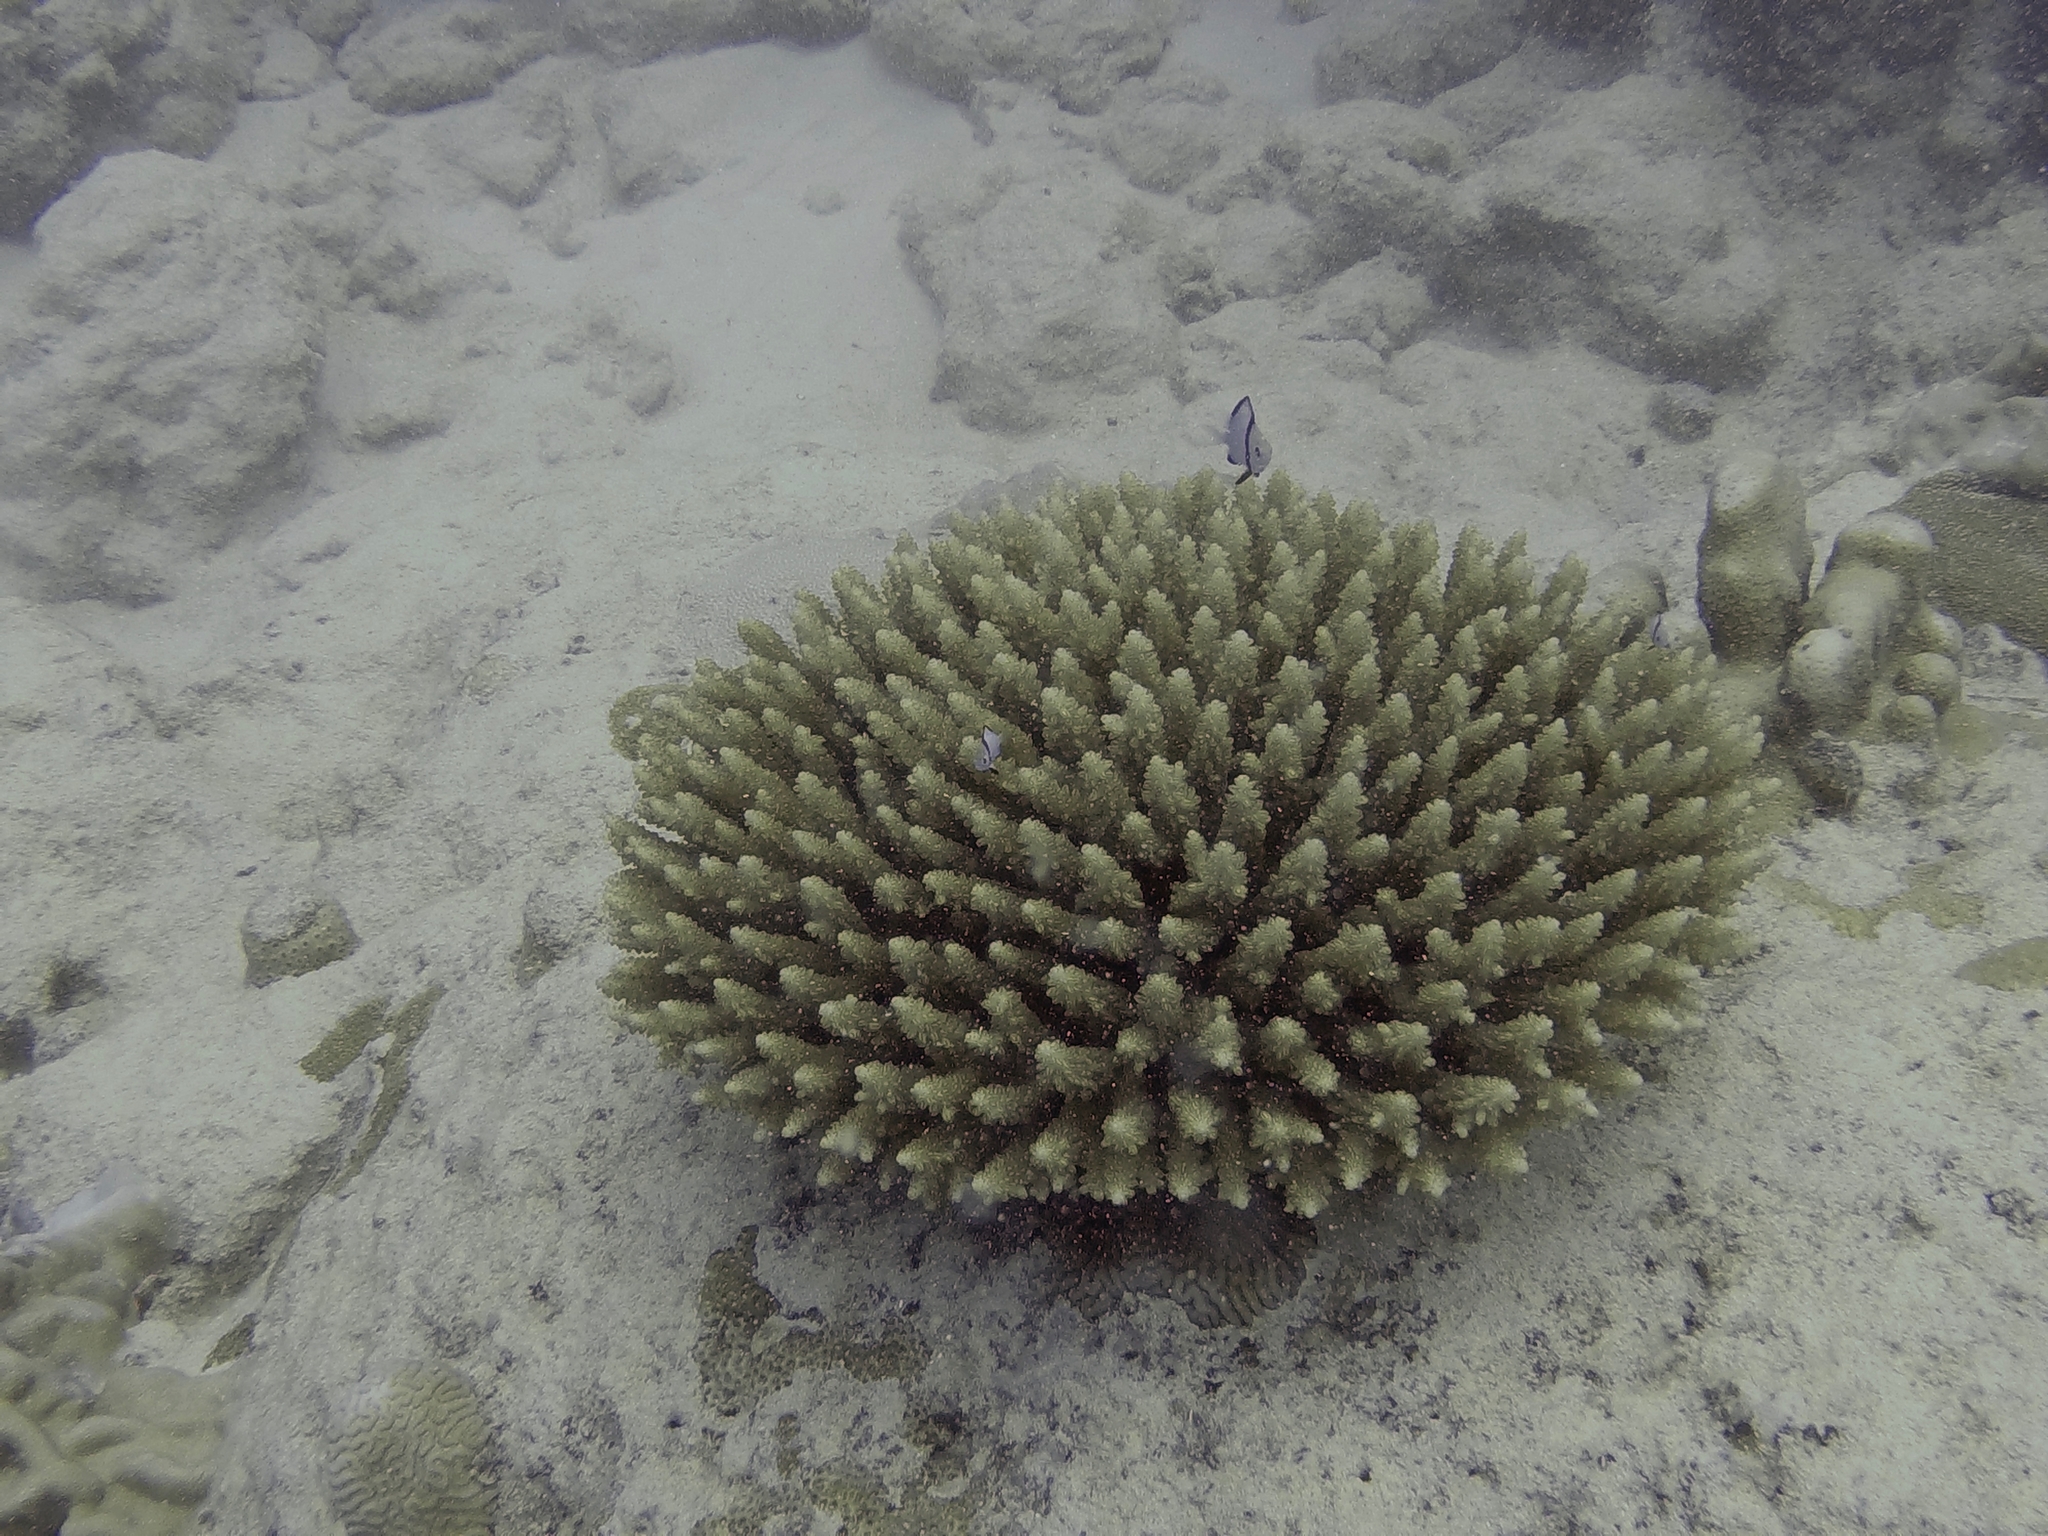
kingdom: Animalia
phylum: Chordata
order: Perciformes
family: Pomacentridae
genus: Dascyllus
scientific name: Dascyllus reticulatus
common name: Reticulated dascyllus
